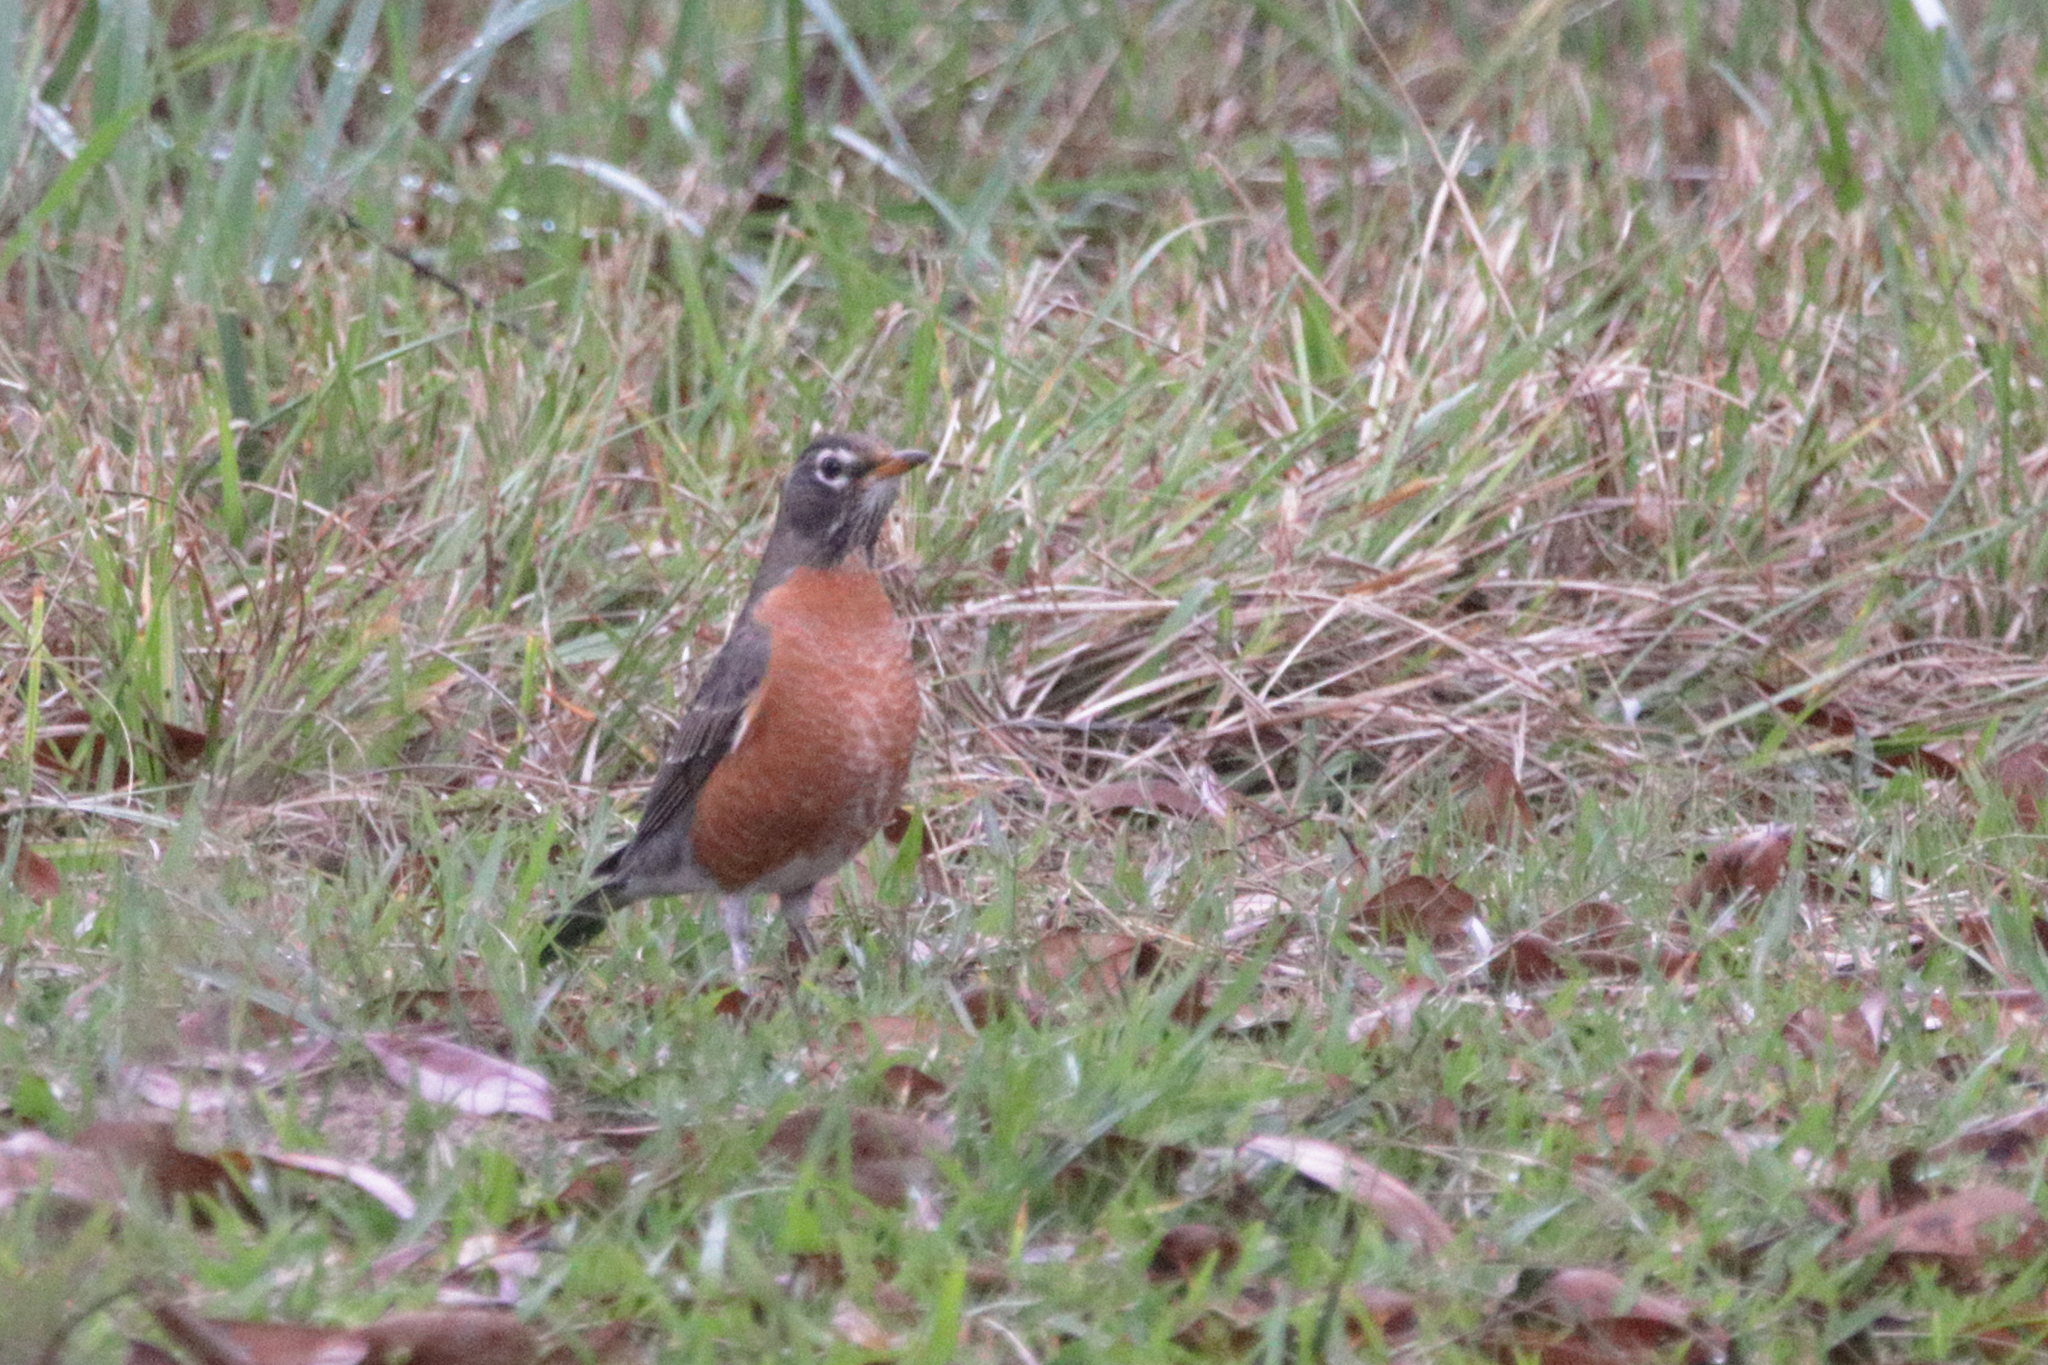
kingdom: Animalia
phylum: Chordata
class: Aves
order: Passeriformes
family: Turdidae
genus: Turdus
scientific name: Turdus migratorius
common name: American robin
